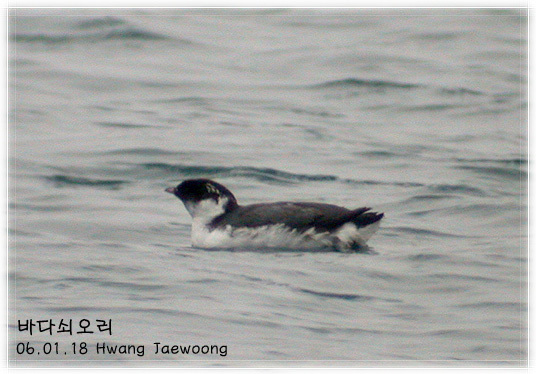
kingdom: Animalia
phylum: Chordata
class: Aves
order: Charadriiformes
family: Alcidae
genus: Synthliboramphus
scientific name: Synthliboramphus antiquus
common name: Ancient murrelet
